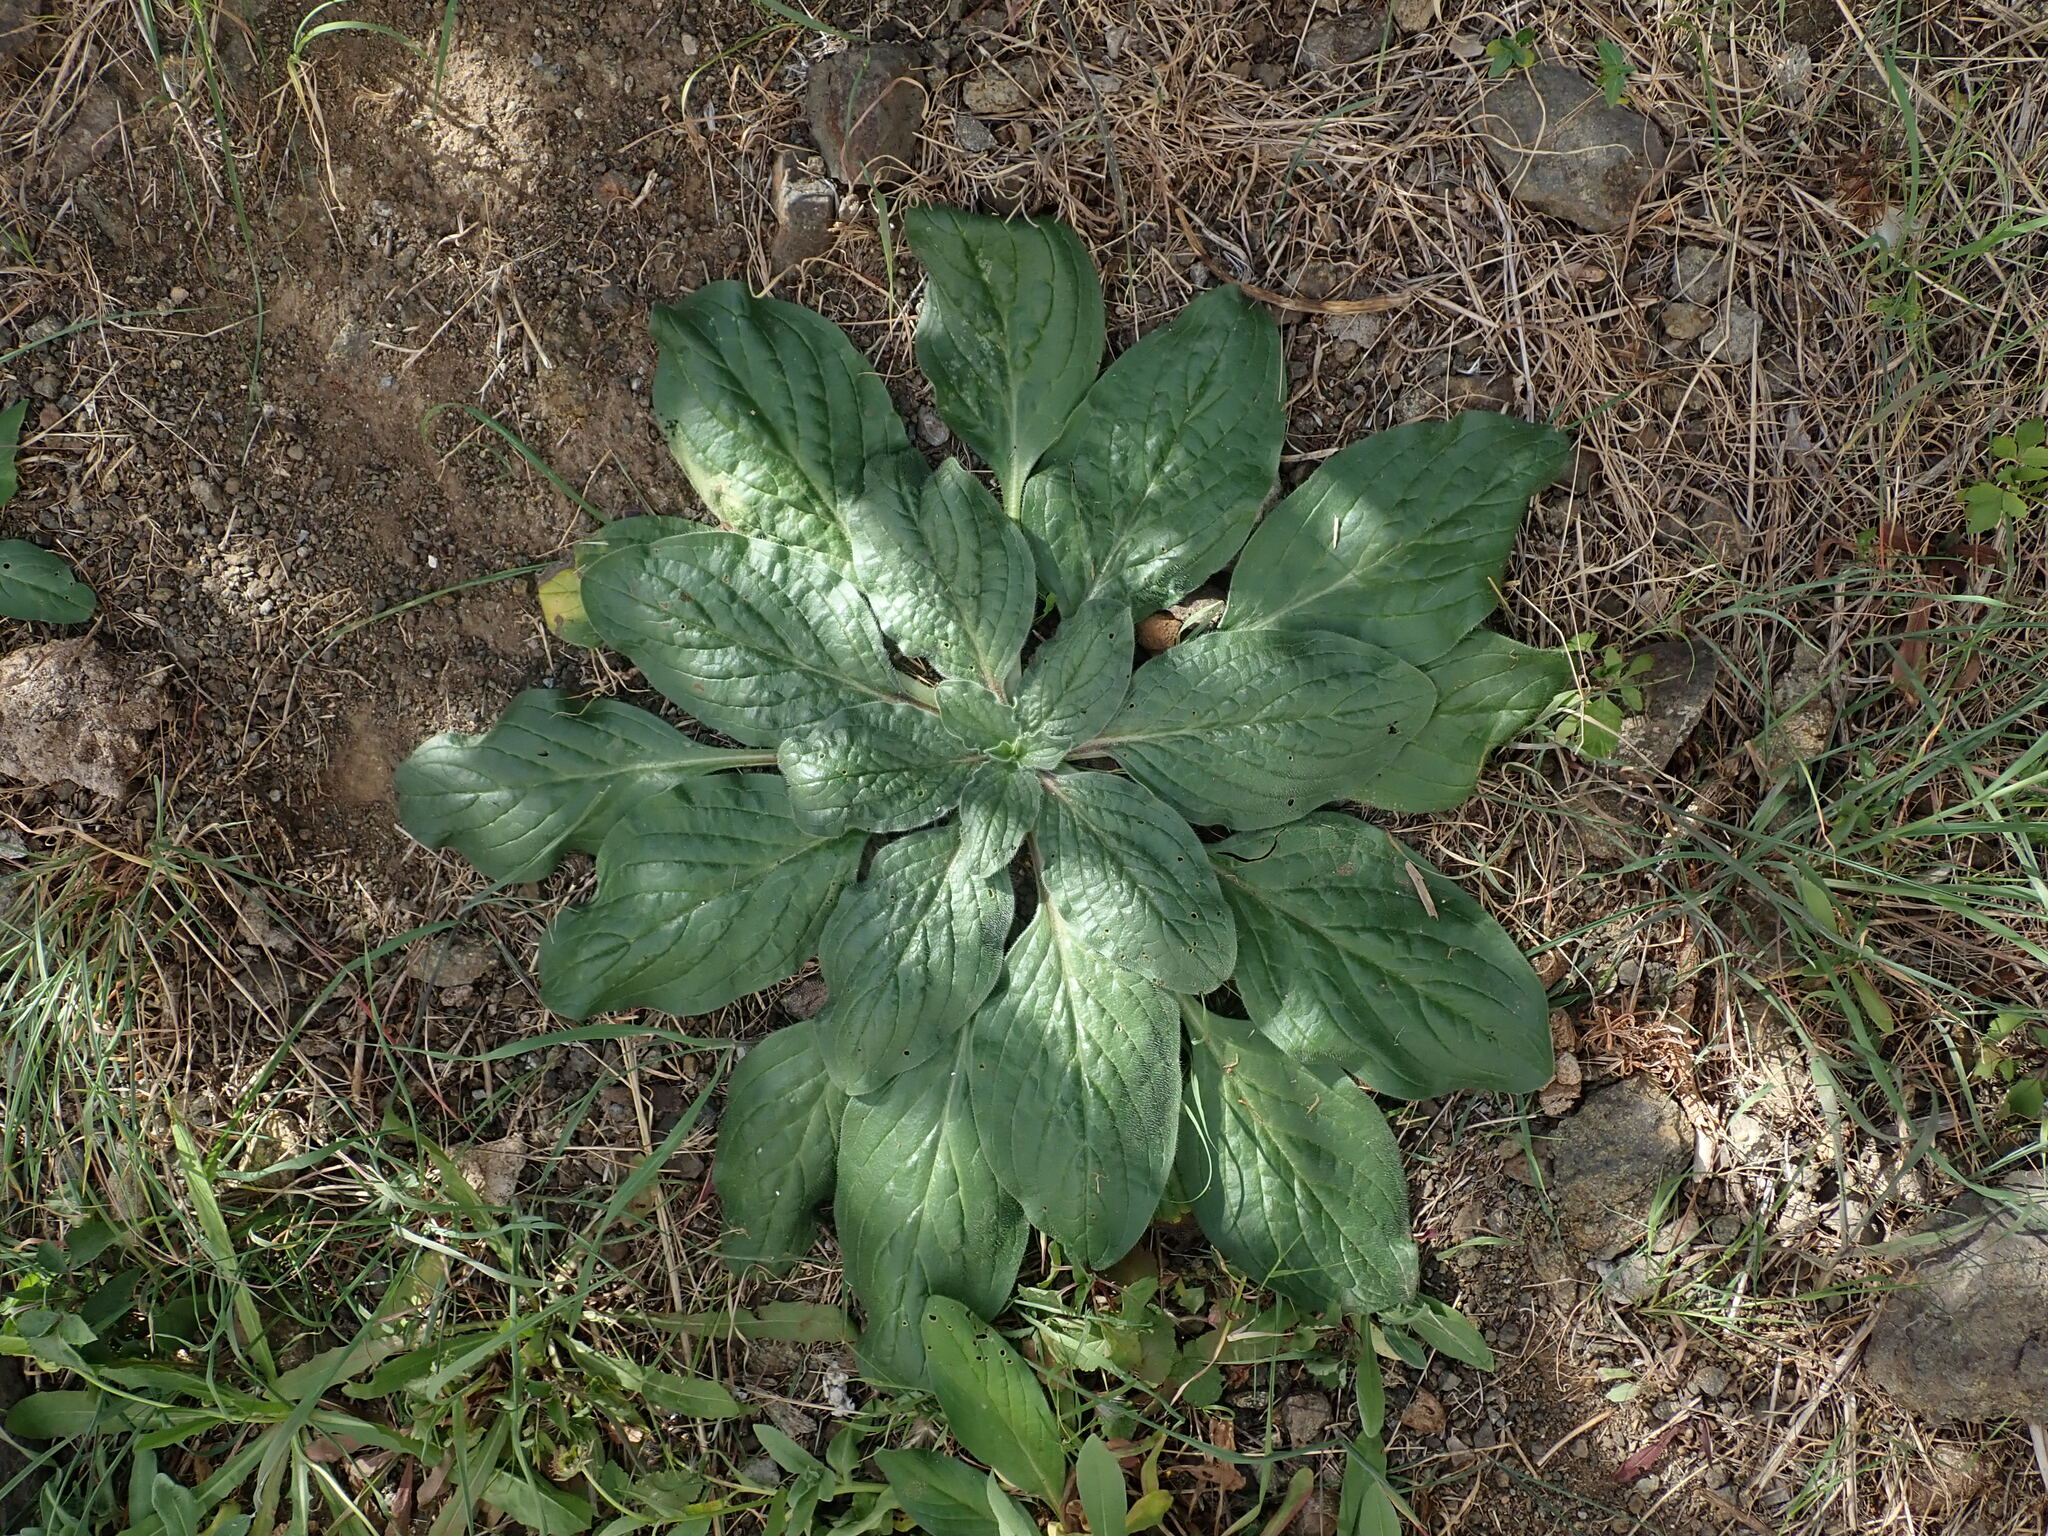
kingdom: Plantae
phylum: Tracheophyta
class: Magnoliopsida
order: Boraginales
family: Boraginaceae
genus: Echium
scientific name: Echium plantagineum
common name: Purple viper's-bugloss
